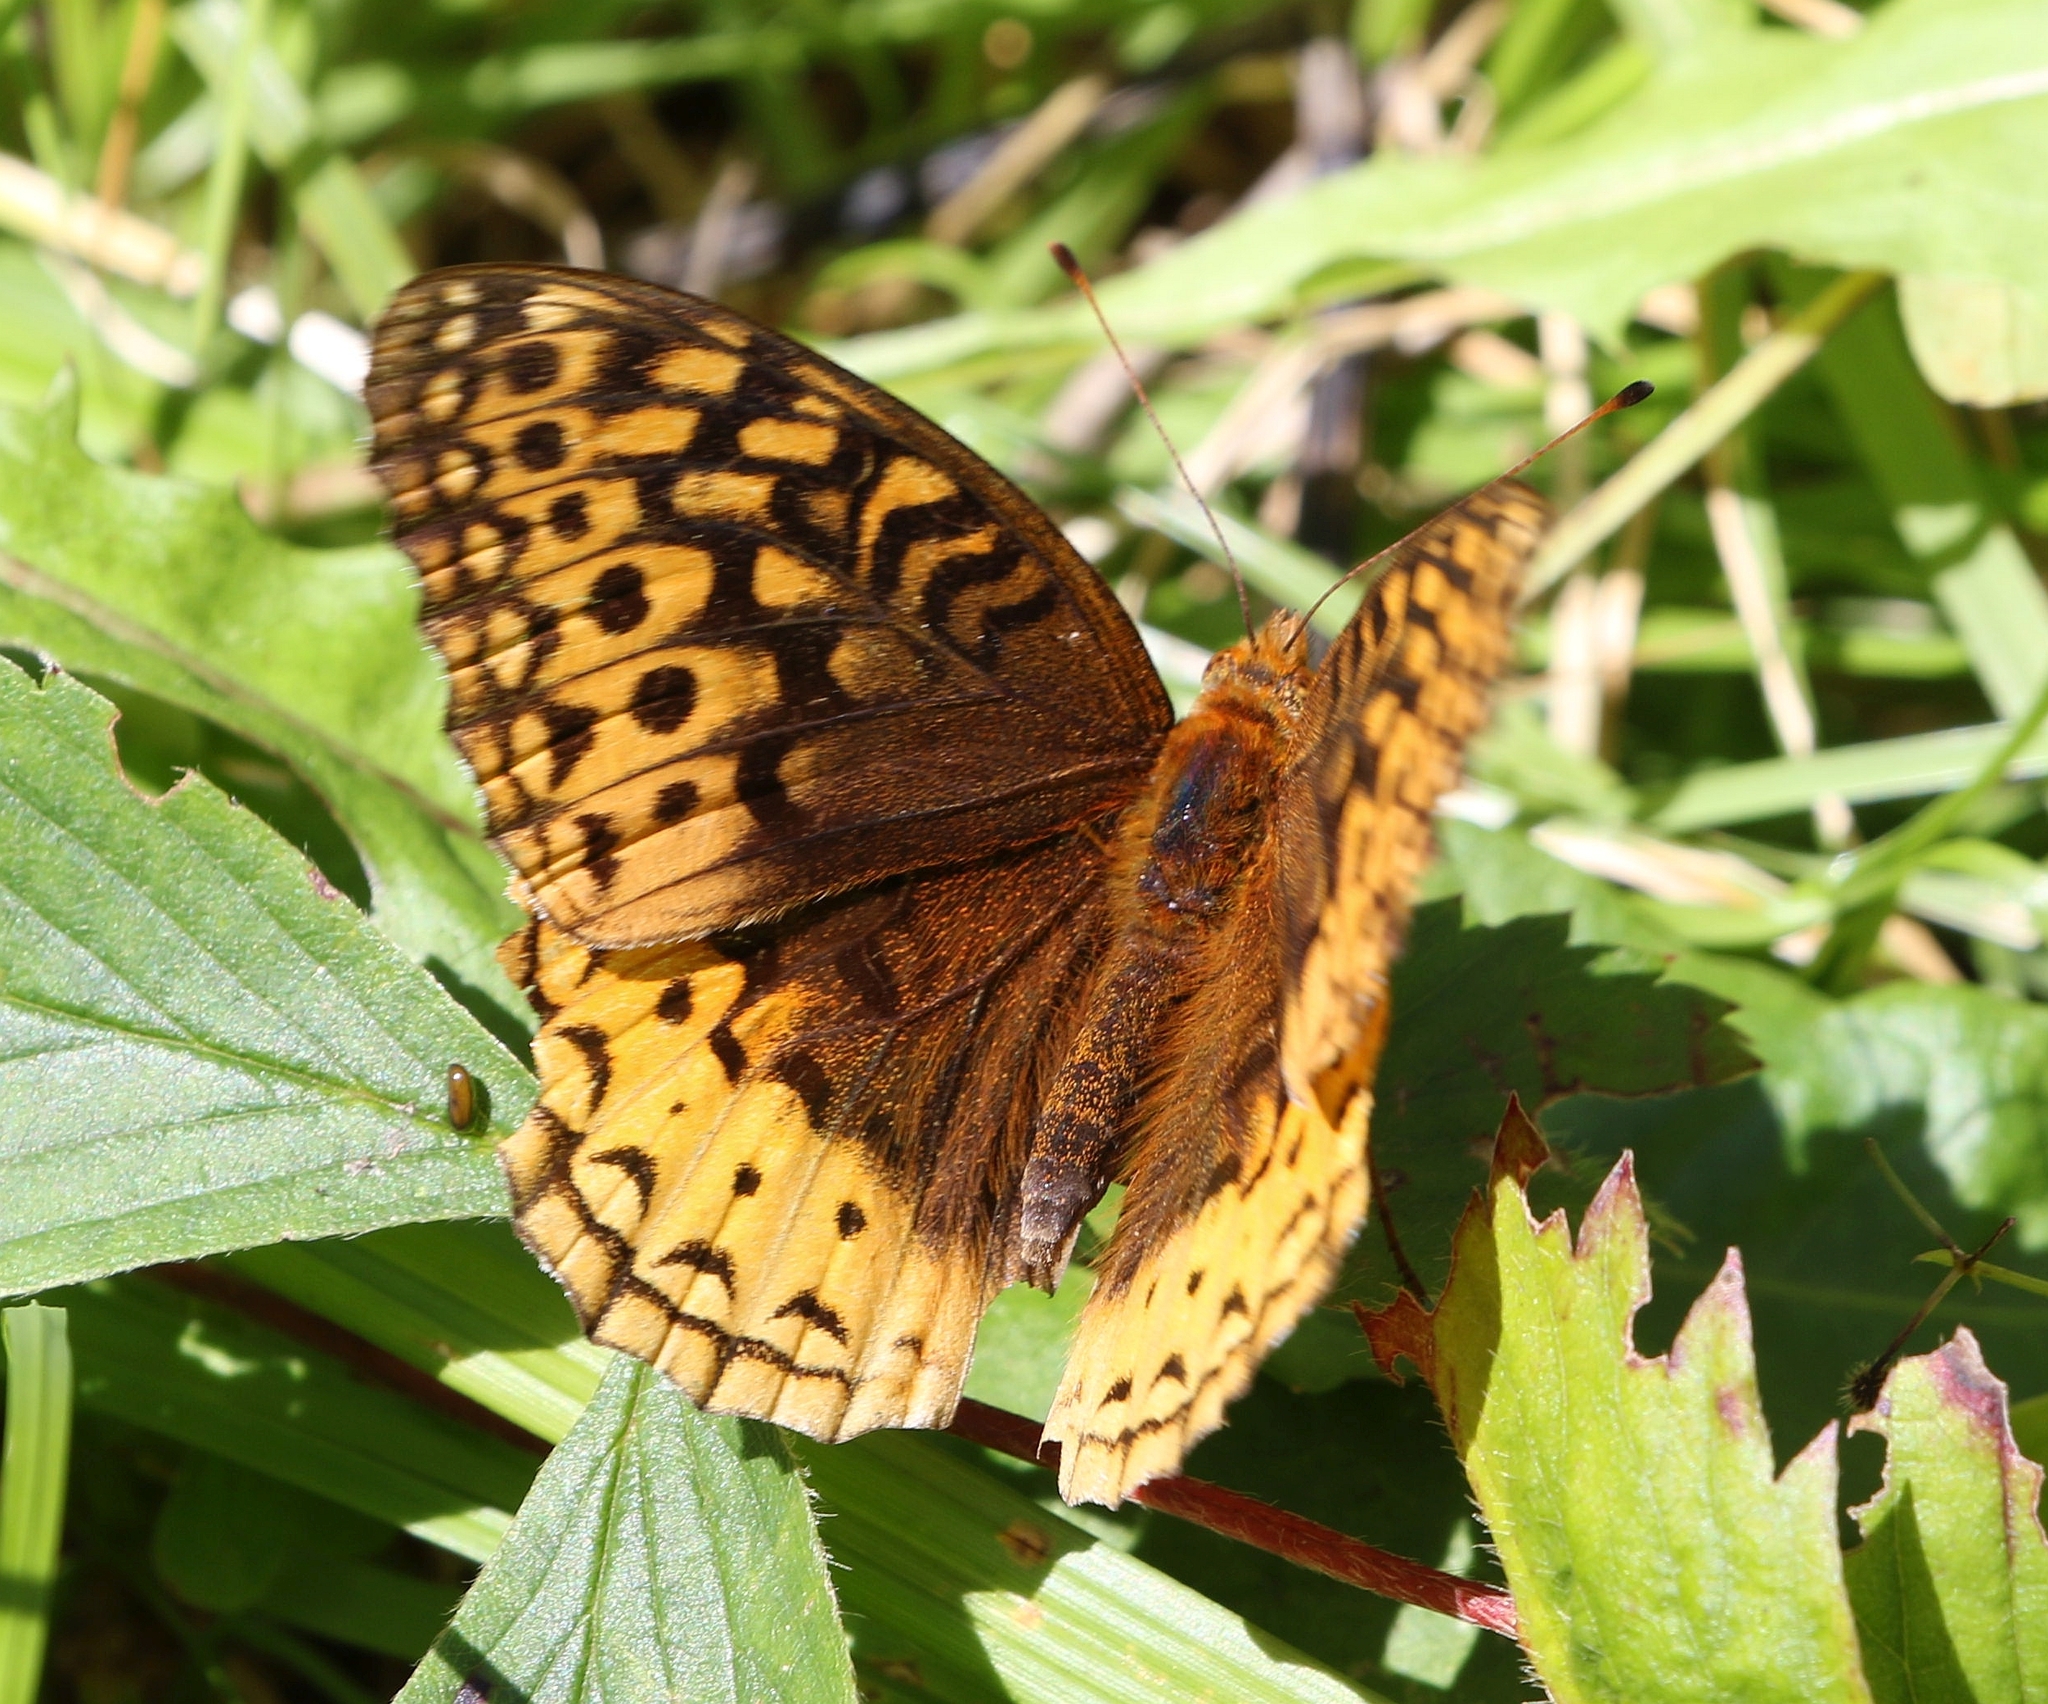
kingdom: Animalia
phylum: Arthropoda
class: Insecta
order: Lepidoptera
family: Nymphalidae
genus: Speyeria
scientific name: Speyeria cybele
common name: Great spangled fritillary
